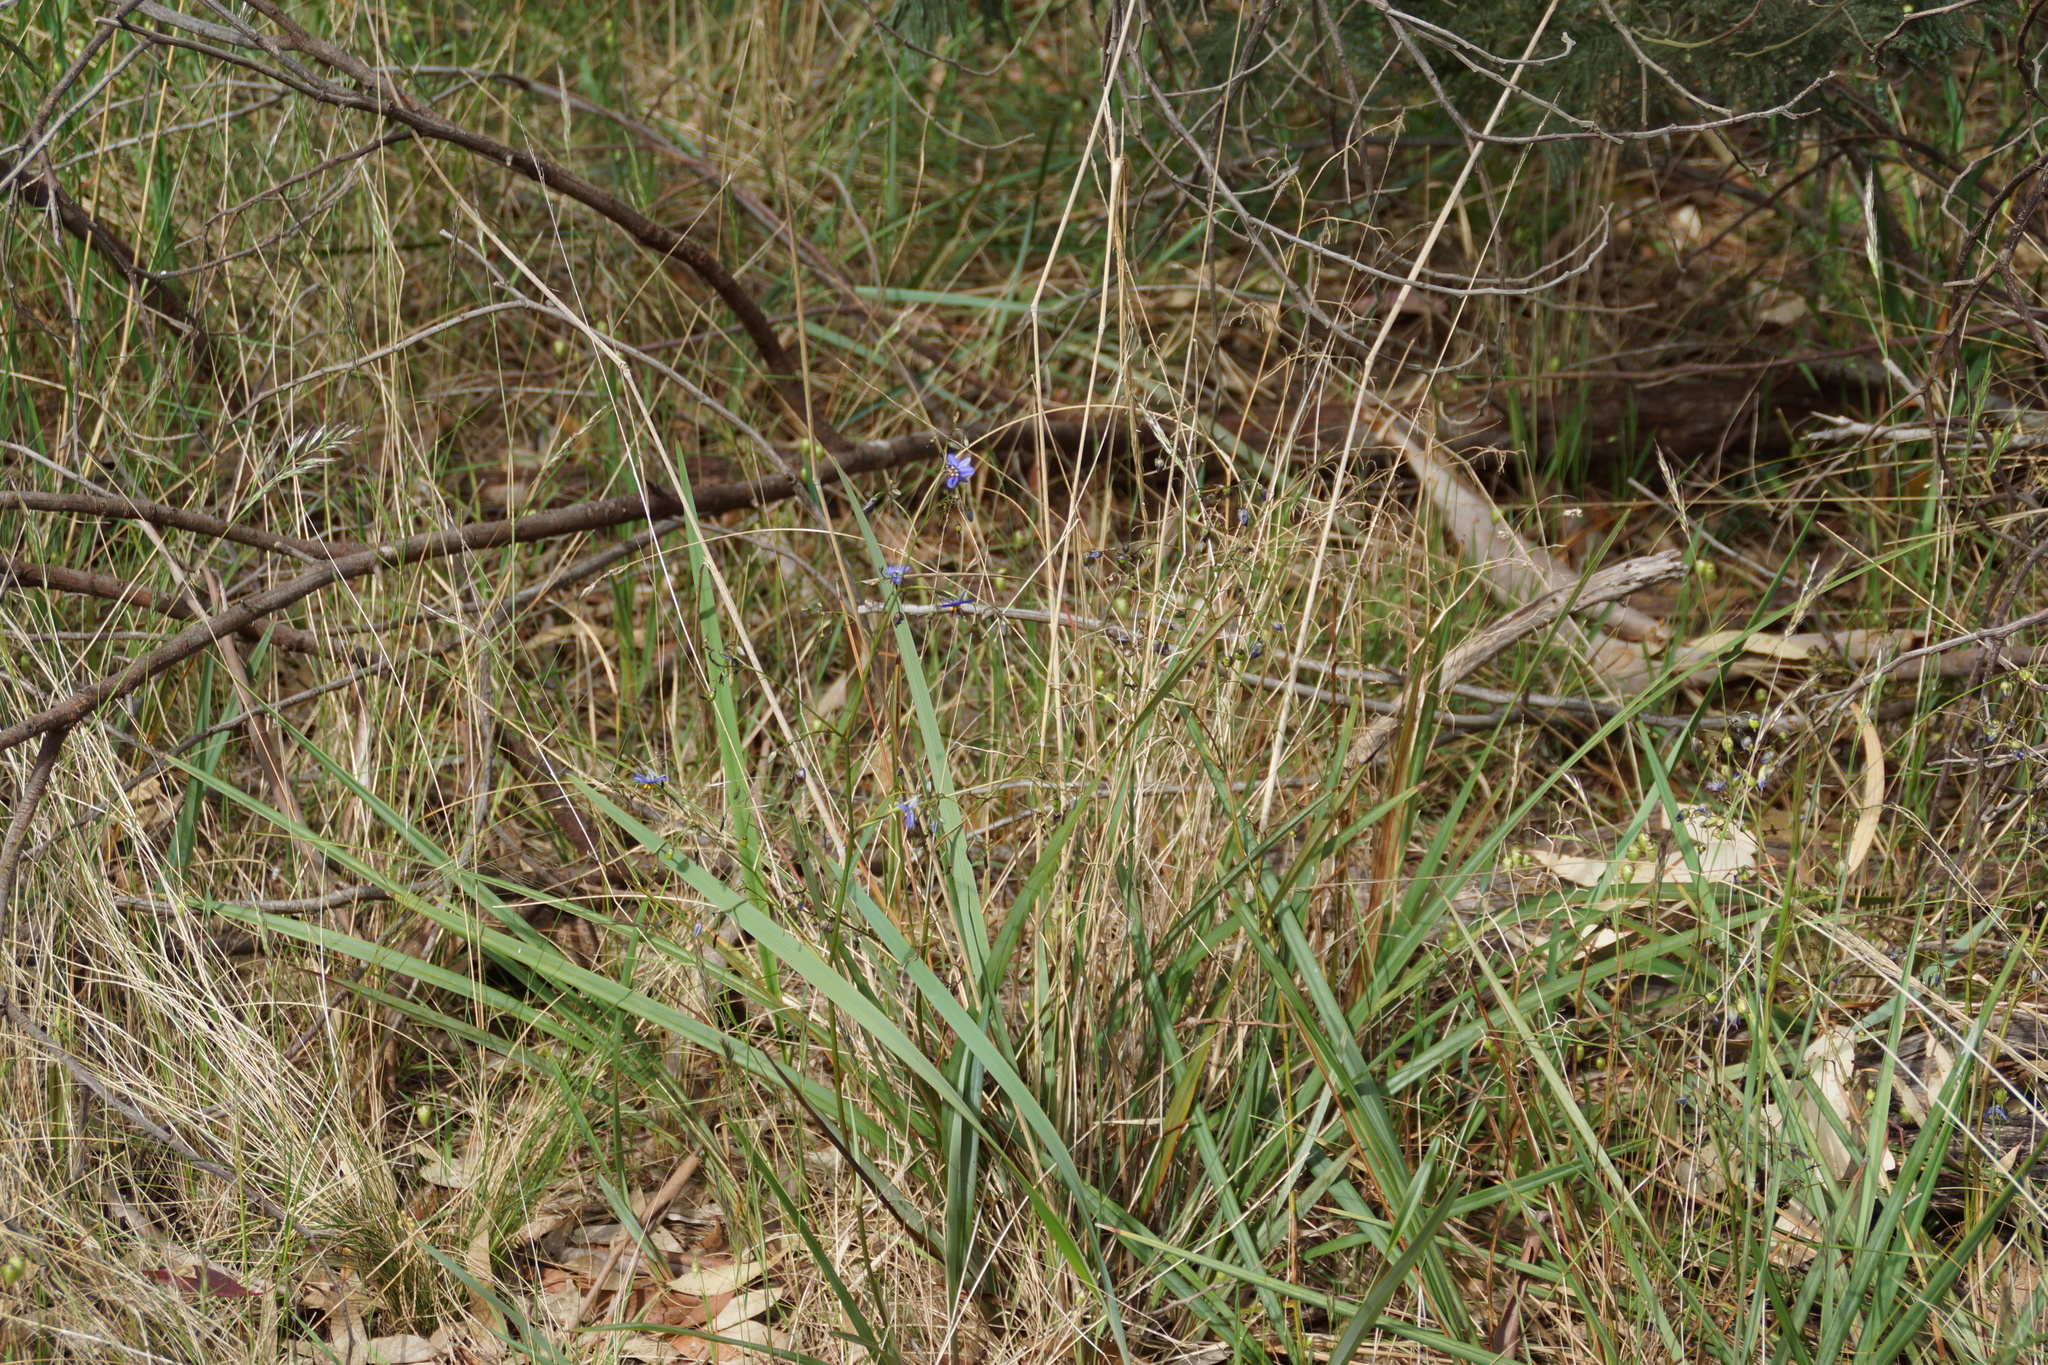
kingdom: Plantae
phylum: Tracheophyta
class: Liliopsida
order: Asparagales
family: Asphodelaceae
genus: Dianella
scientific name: Dianella revoluta
